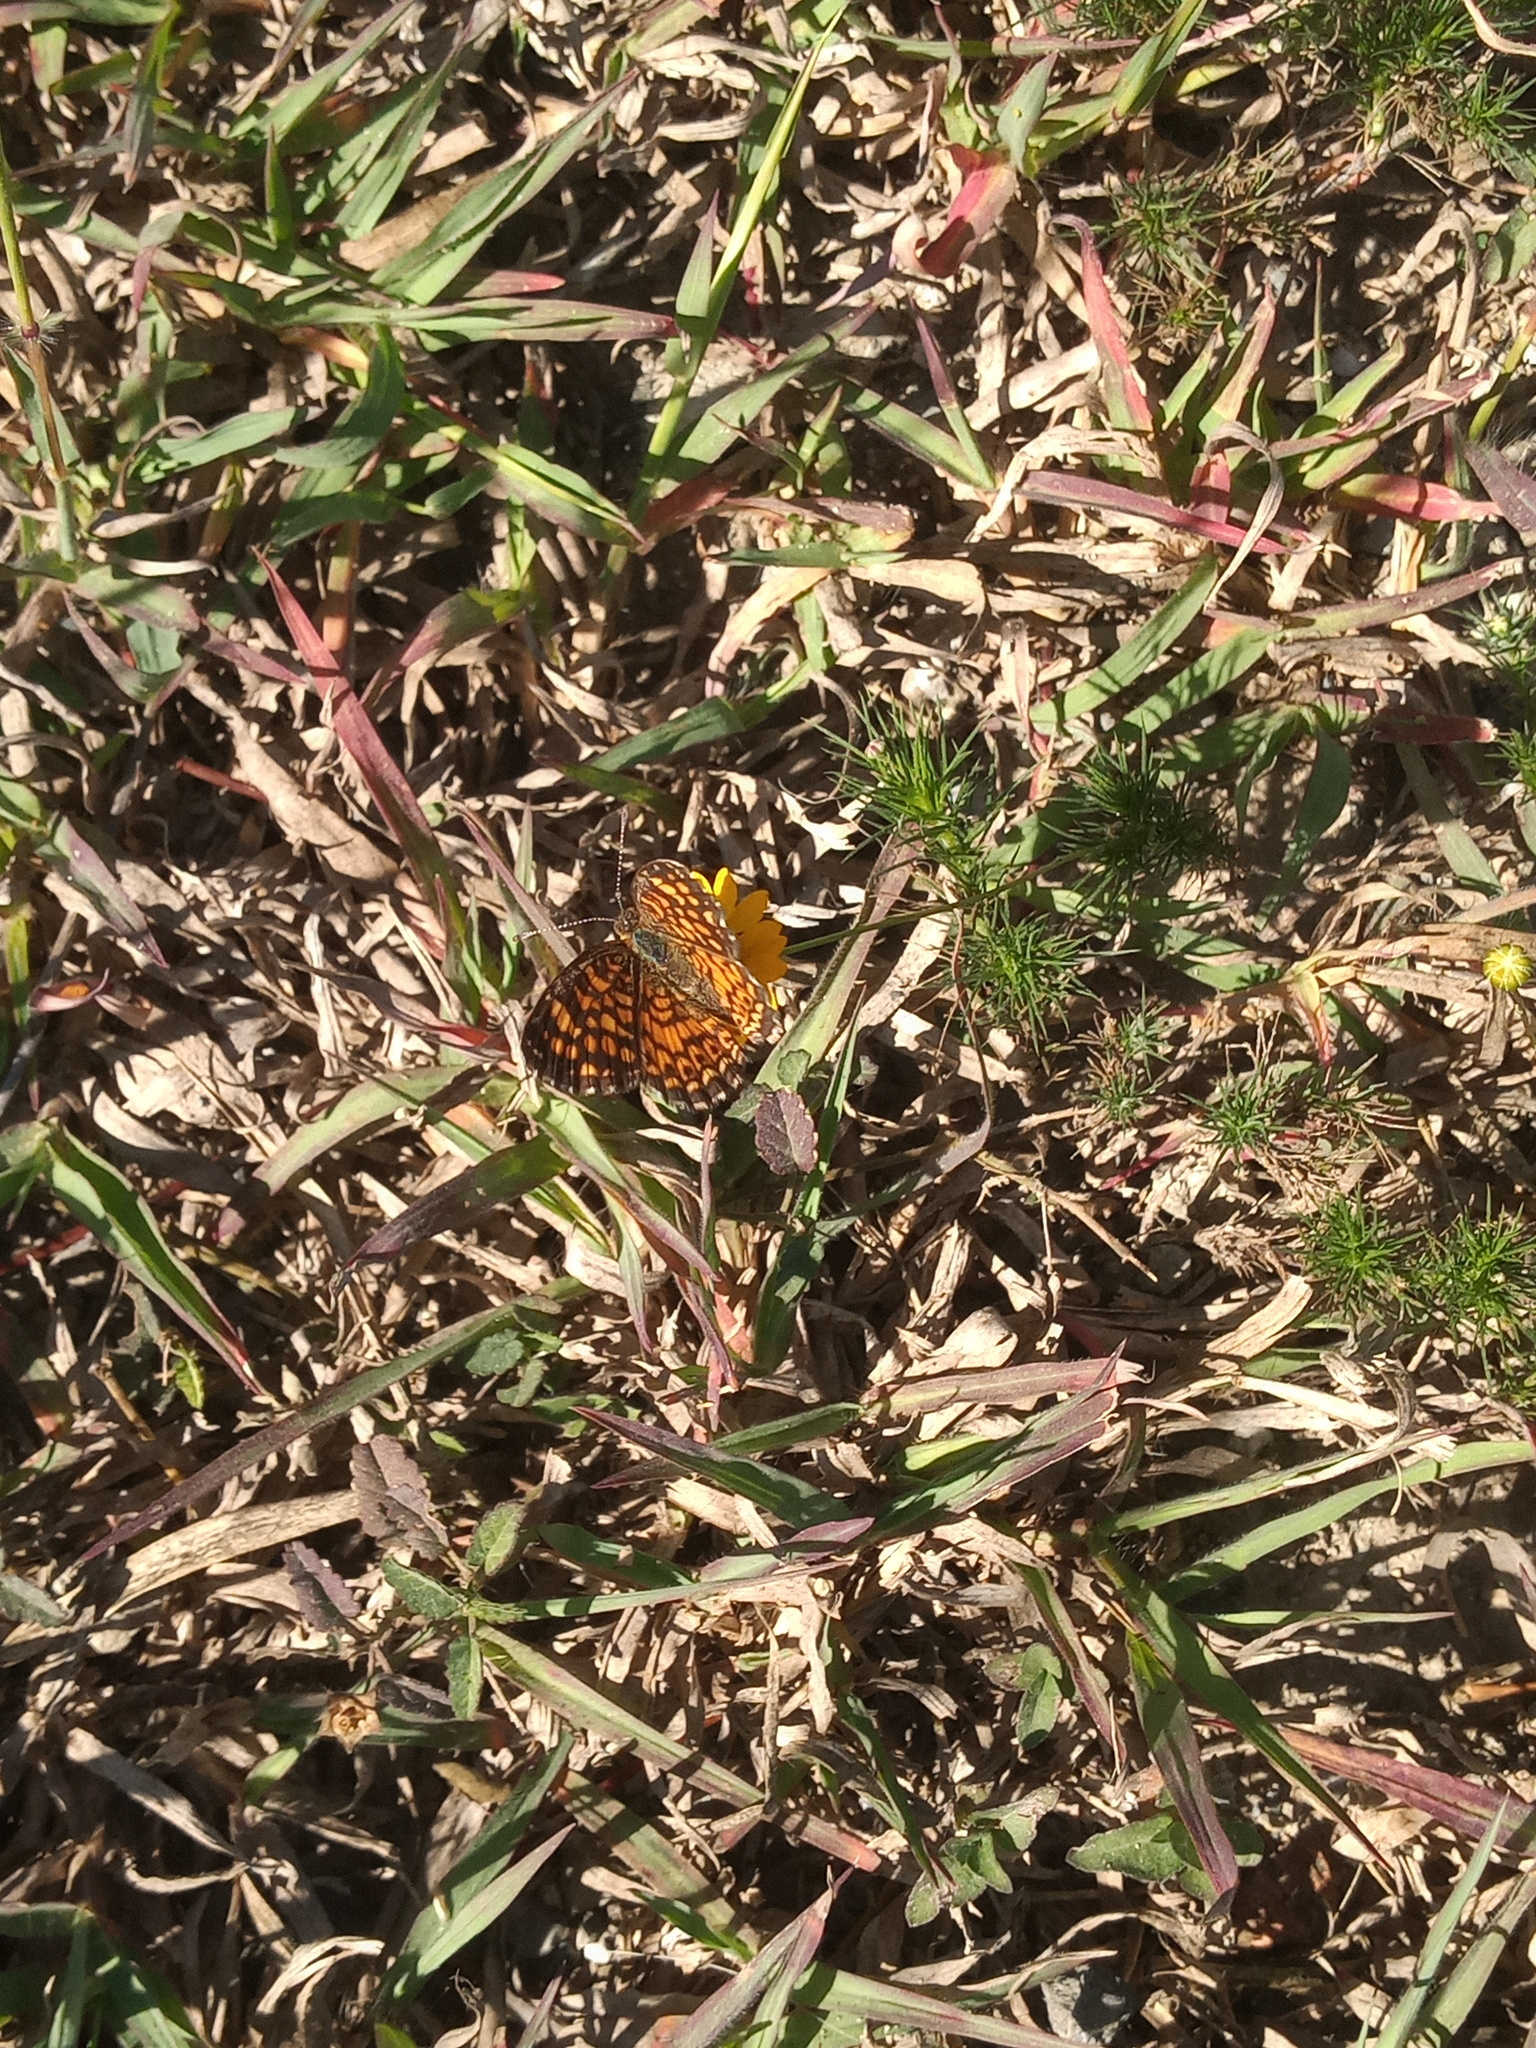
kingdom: Animalia
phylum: Arthropoda
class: Insecta
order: Lepidoptera
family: Nymphalidae
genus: Texola
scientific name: Texola elada
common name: Elada checkerspot
